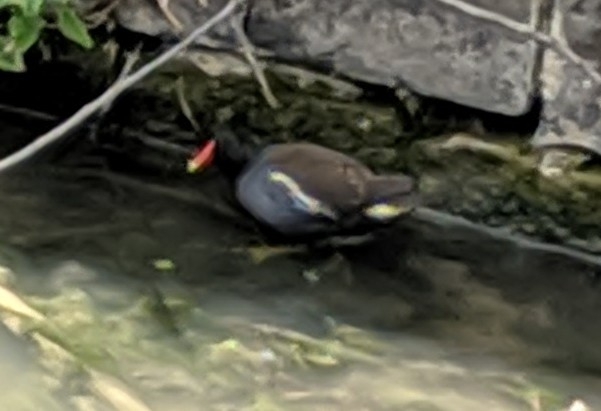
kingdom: Animalia
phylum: Chordata
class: Aves
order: Gruiformes
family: Rallidae
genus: Gallinula
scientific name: Gallinula chloropus
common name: Common moorhen
